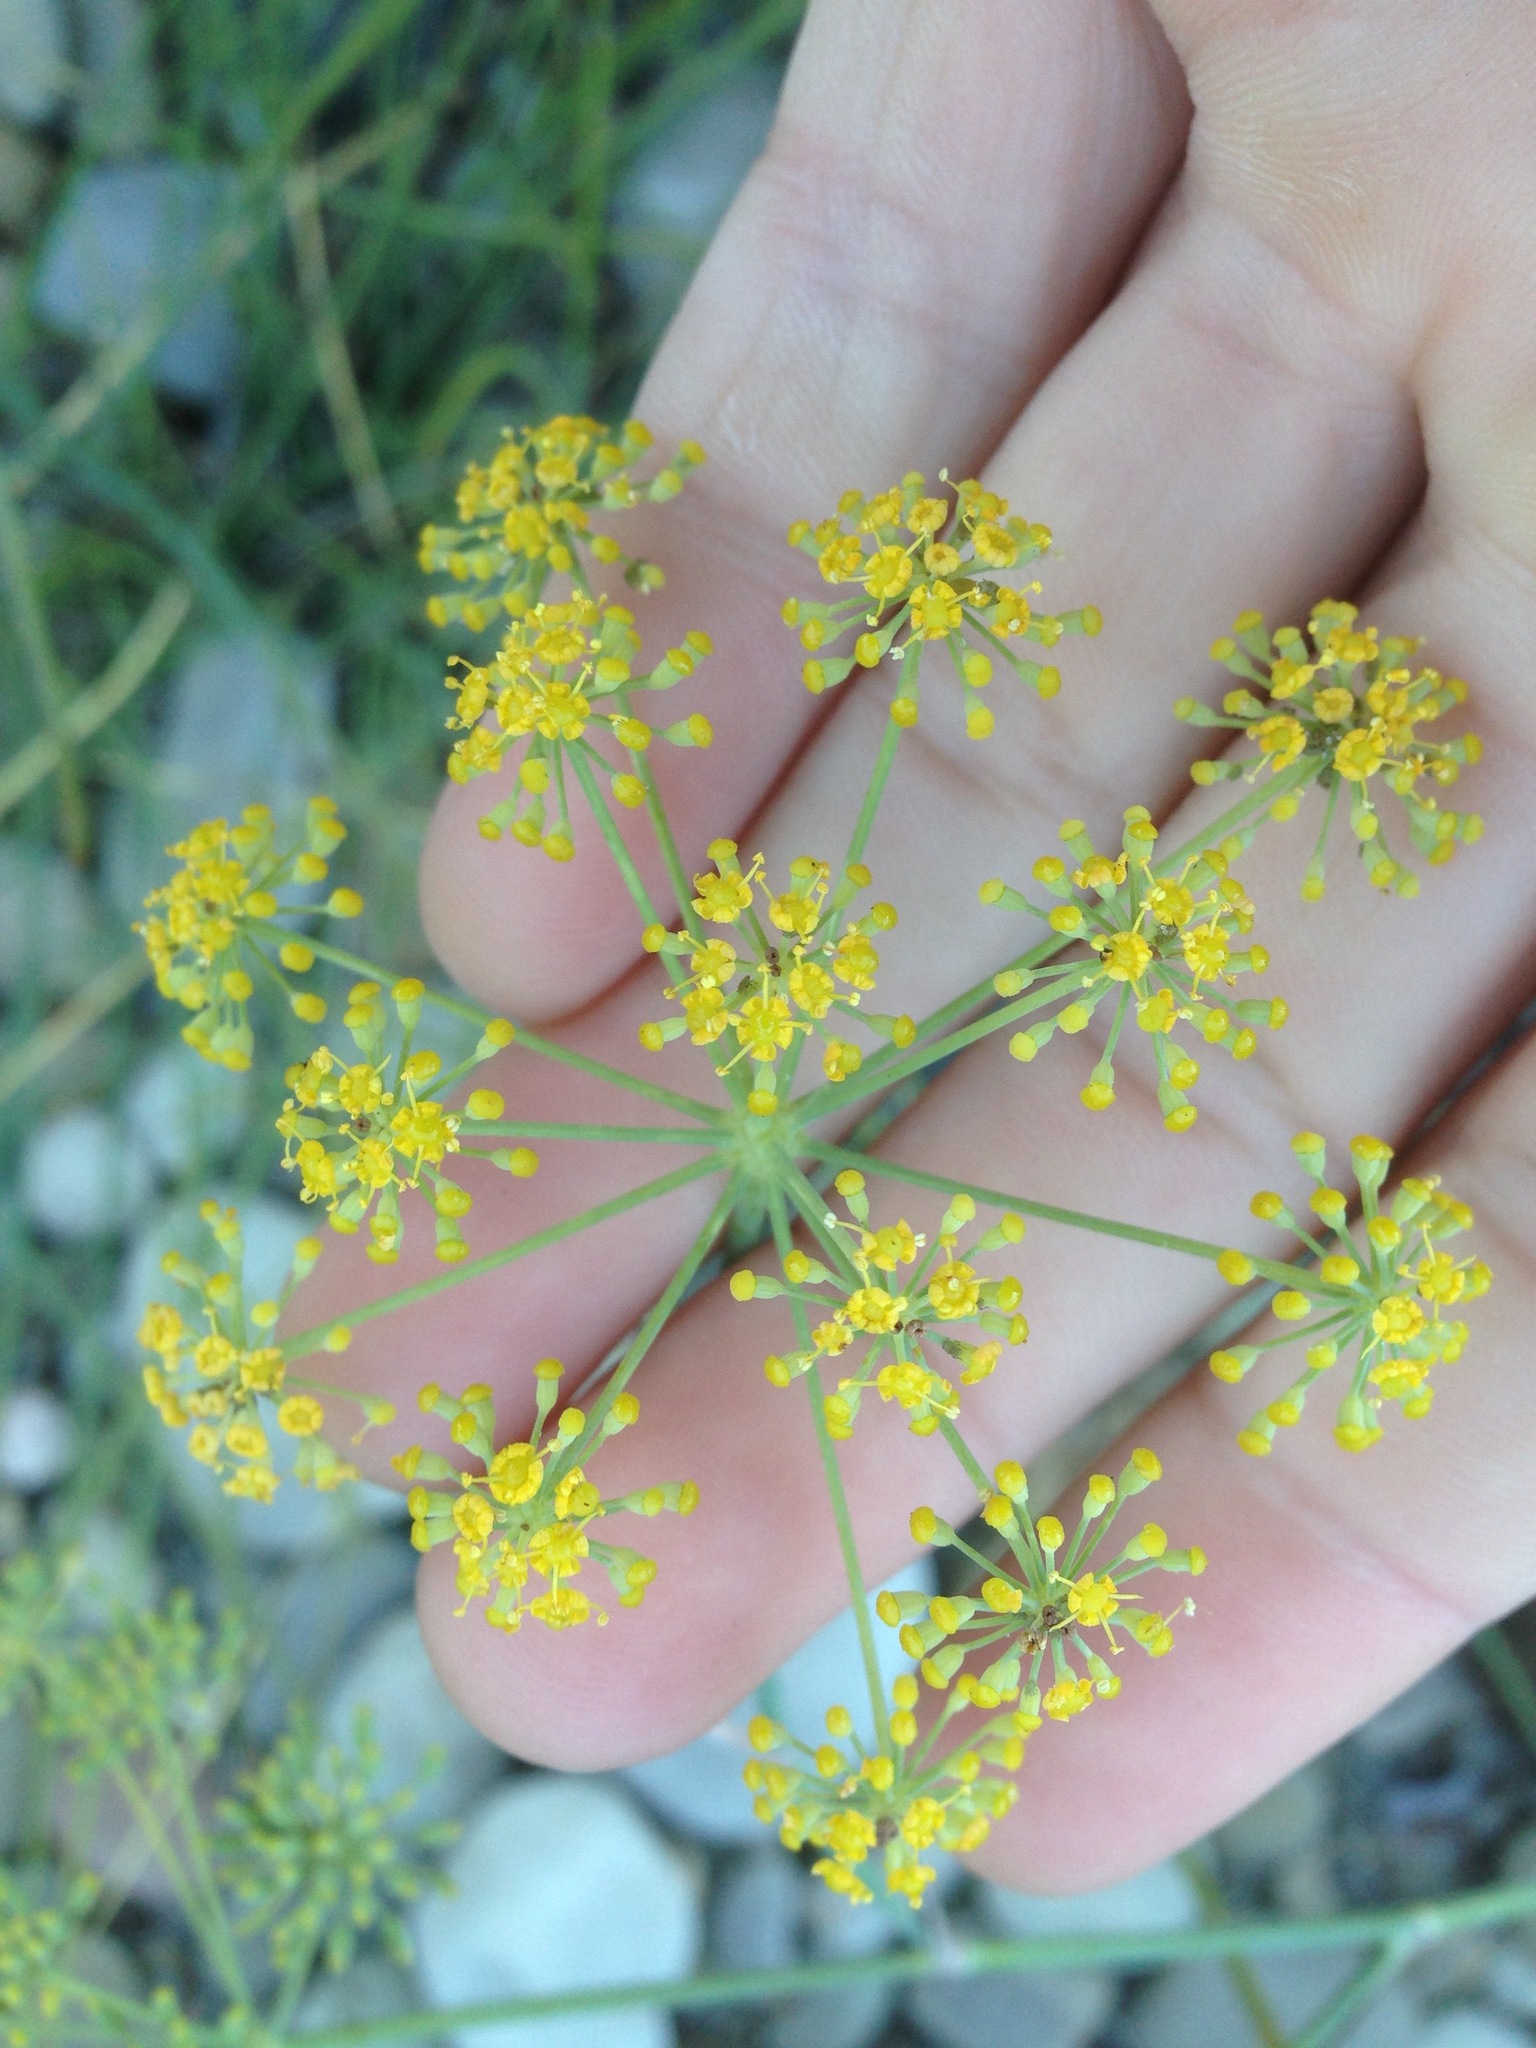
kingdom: Plantae
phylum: Tracheophyta
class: Magnoliopsida
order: Apiales
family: Apiaceae
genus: Foeniculum
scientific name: Foeniculum vulgare
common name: Fennel
